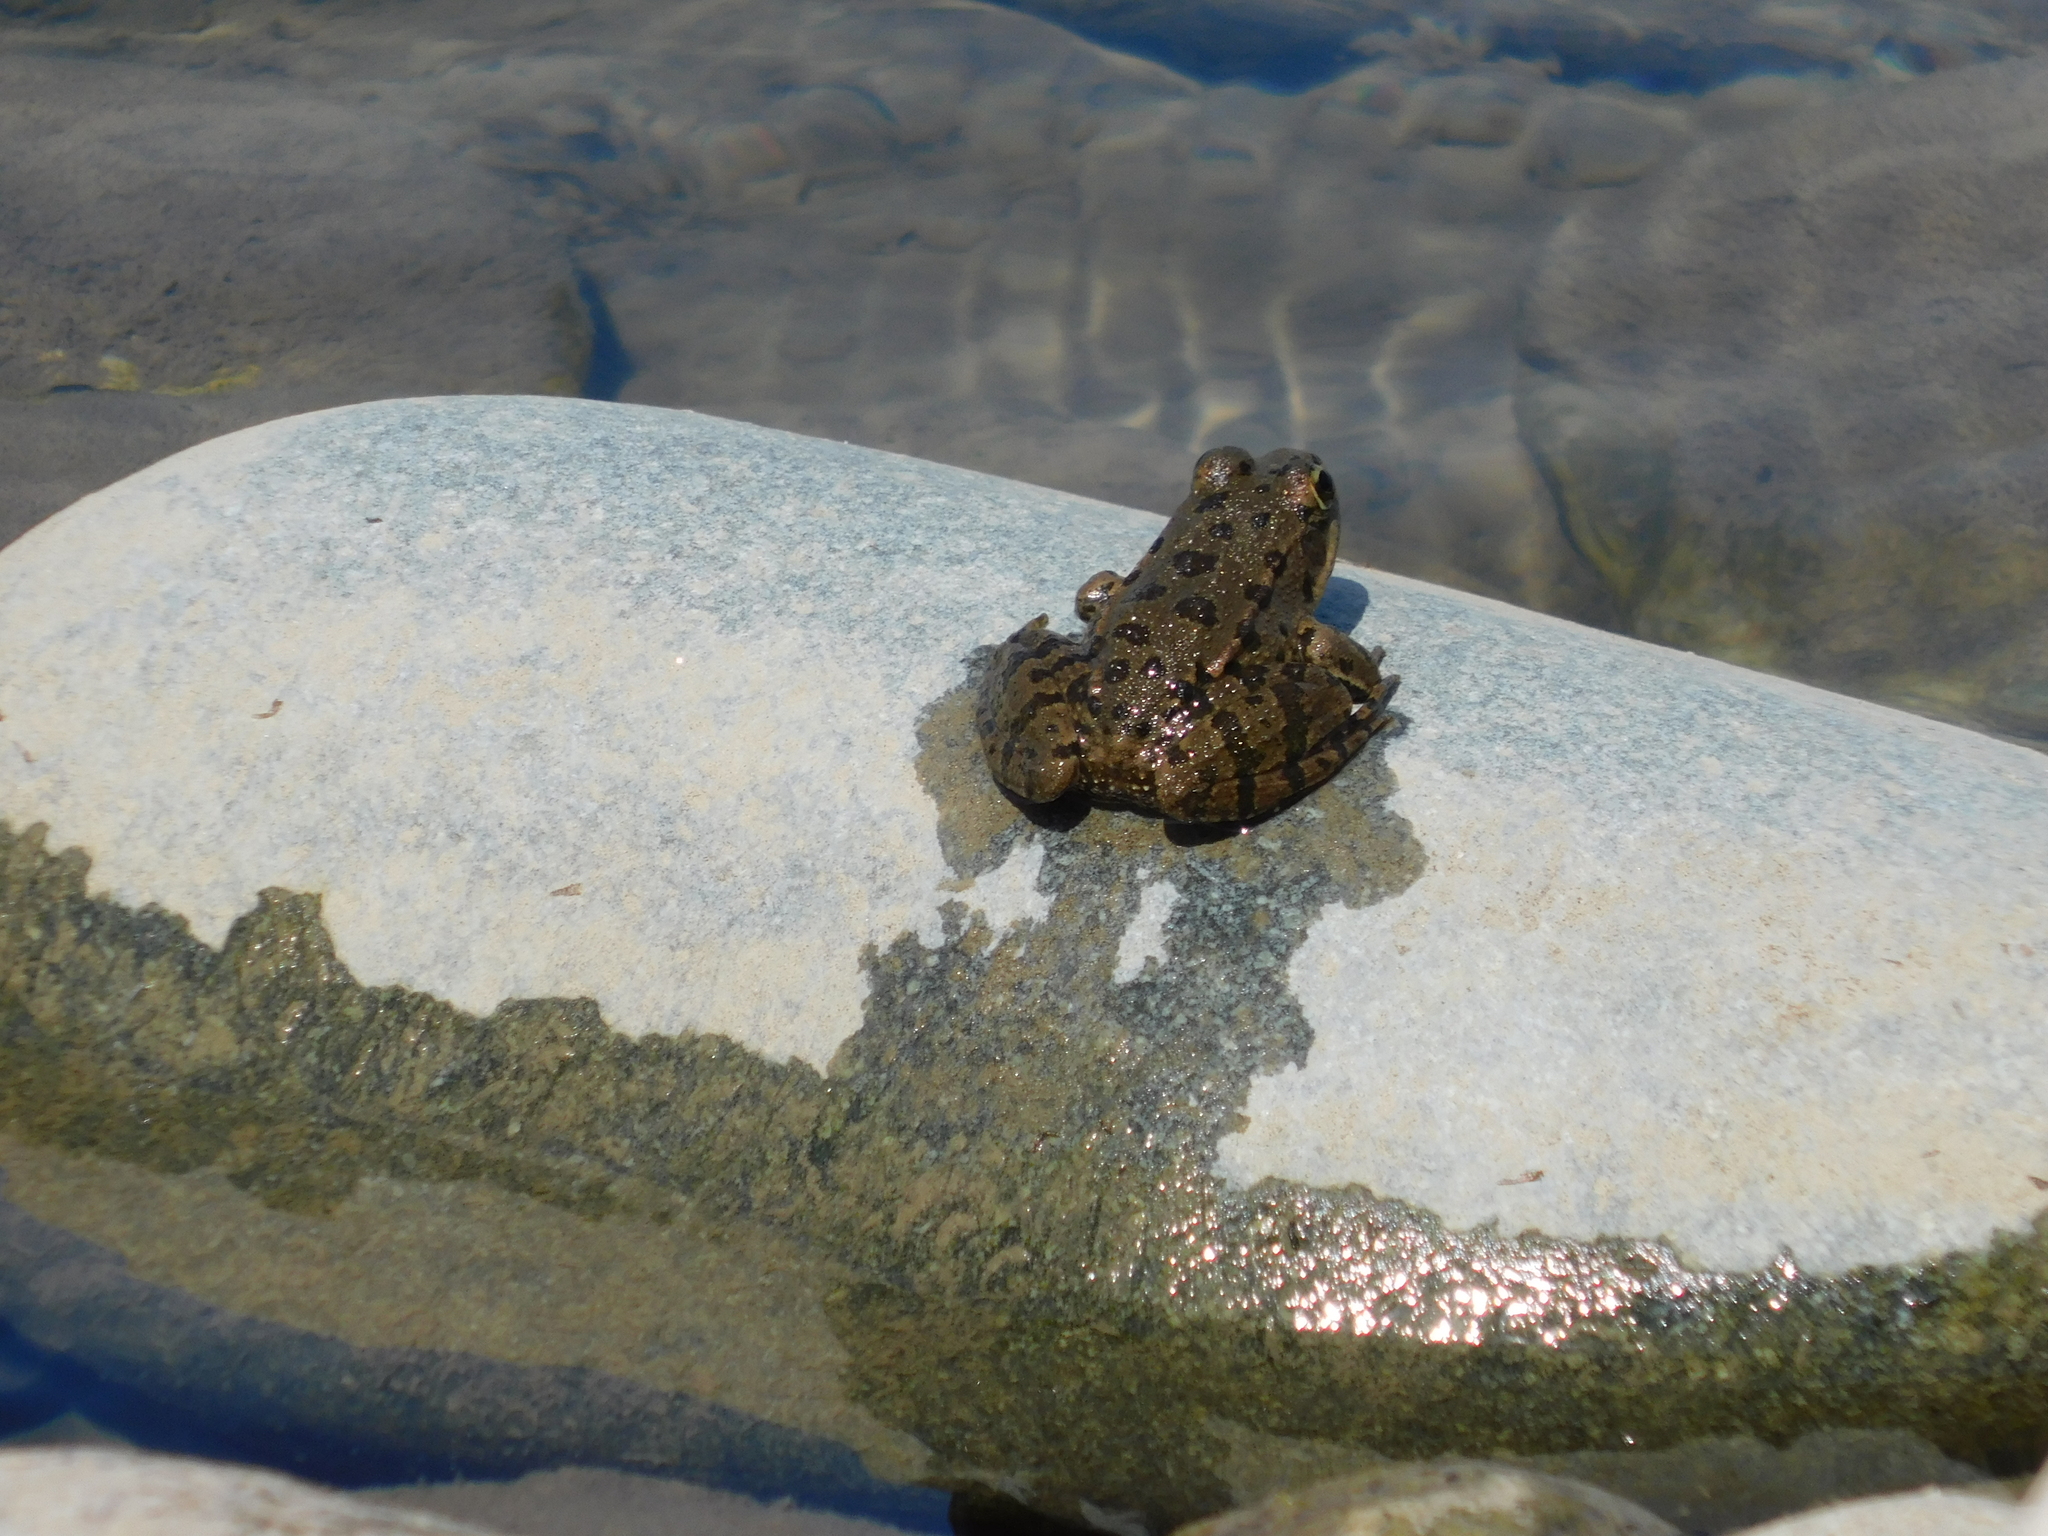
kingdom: Animalia
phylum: Chordata
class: Amphibia
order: Anura
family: Ranidae
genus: Pelophylax
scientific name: Pelophylax ridibundus
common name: Marsh frog
